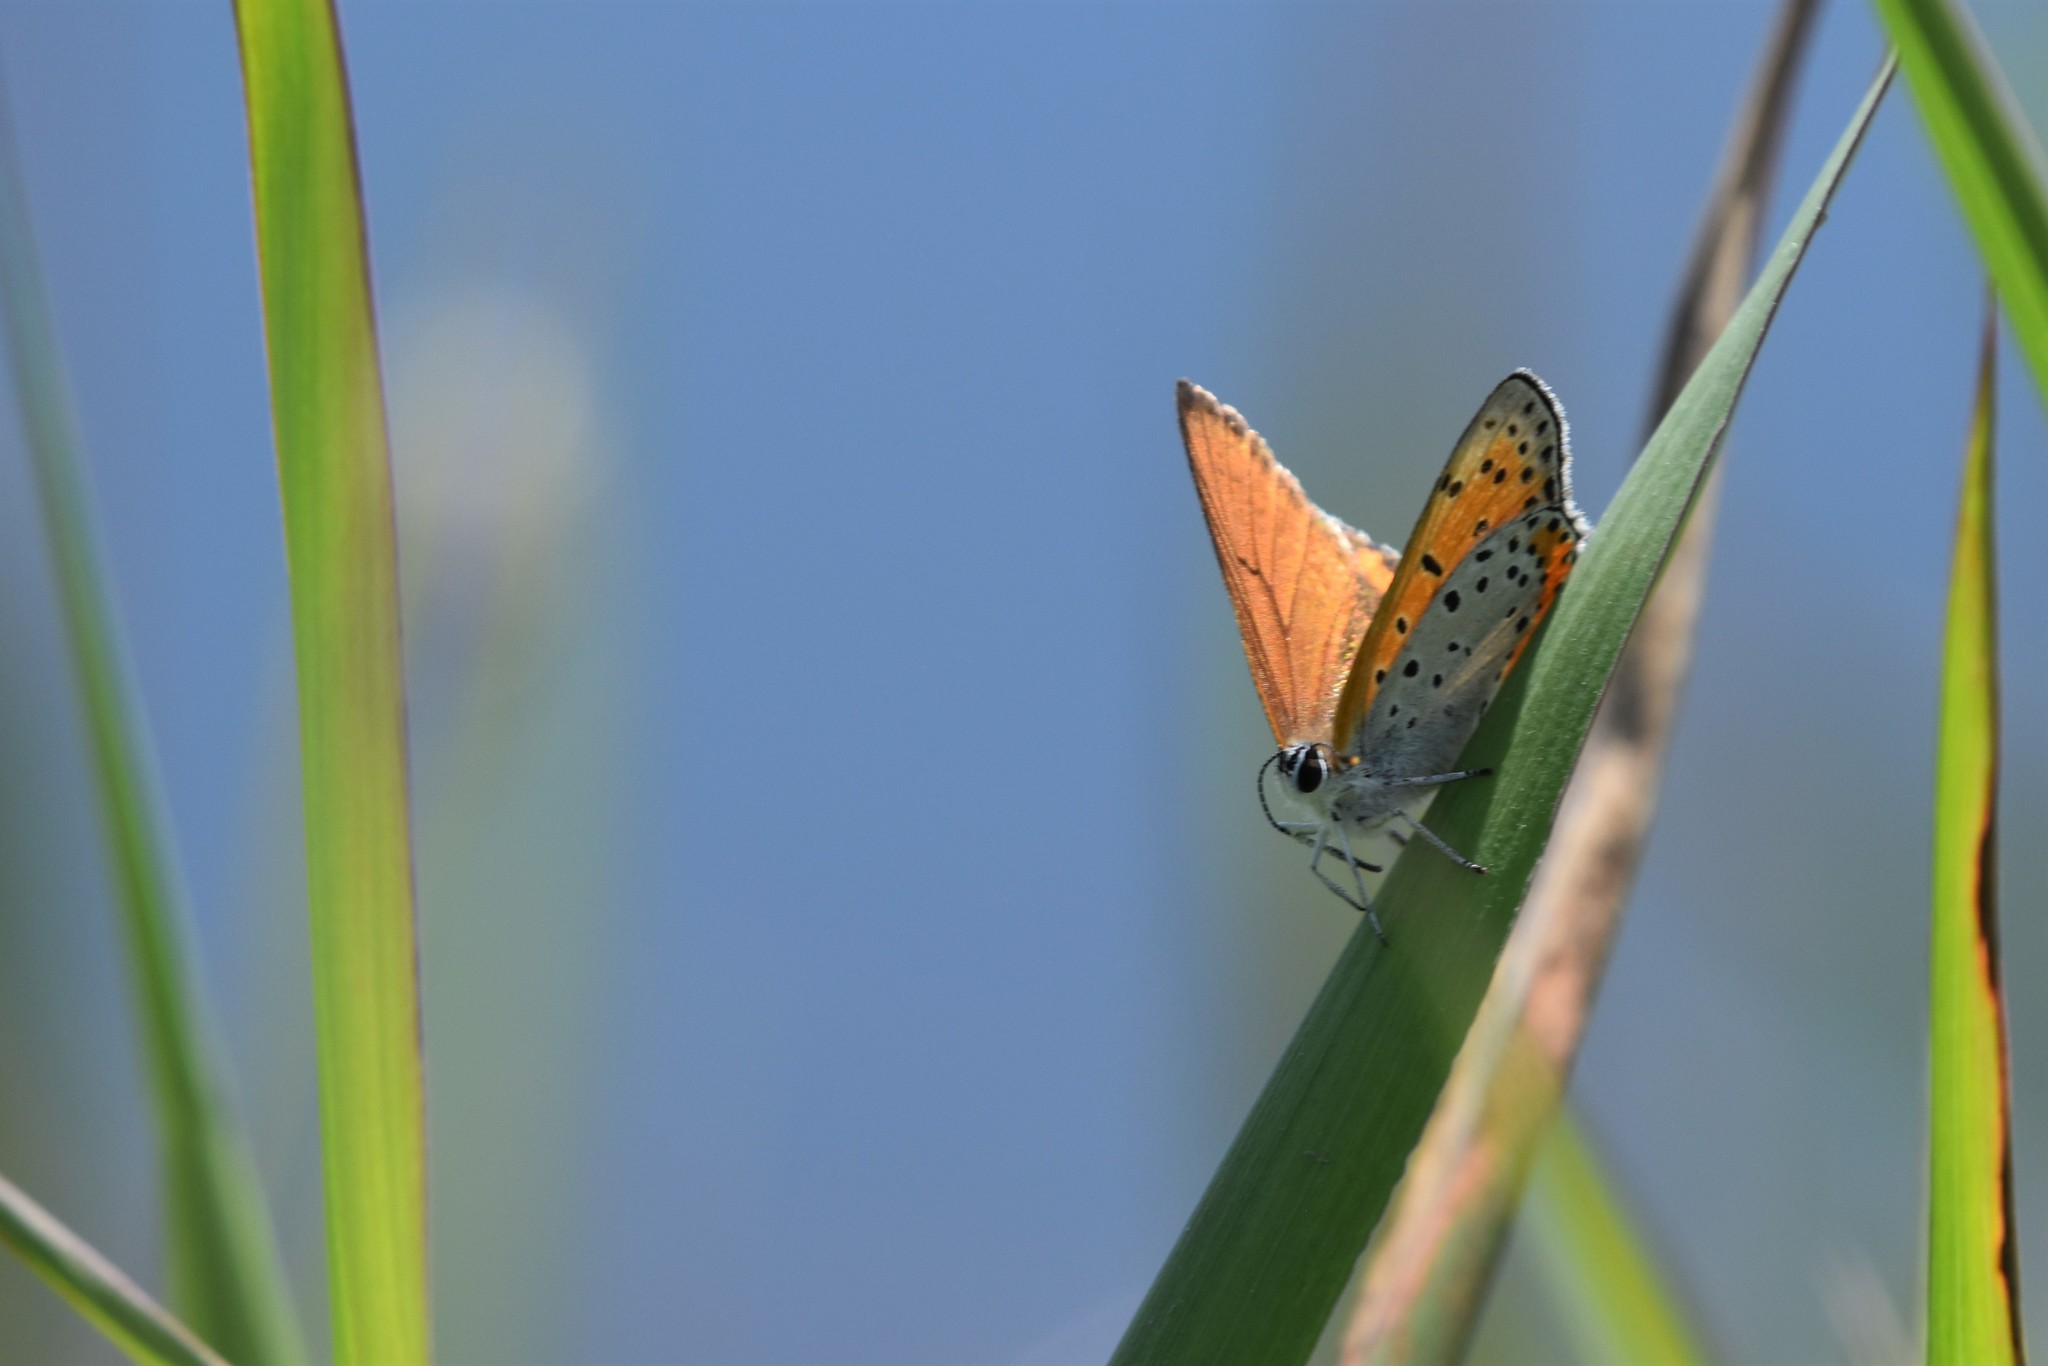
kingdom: Animalia
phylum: Arthropoda
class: Insecta
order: Lepidoptera
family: Lycaenidae
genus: Tharsalea
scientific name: Tharsalea hyllus
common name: Bronze copper
